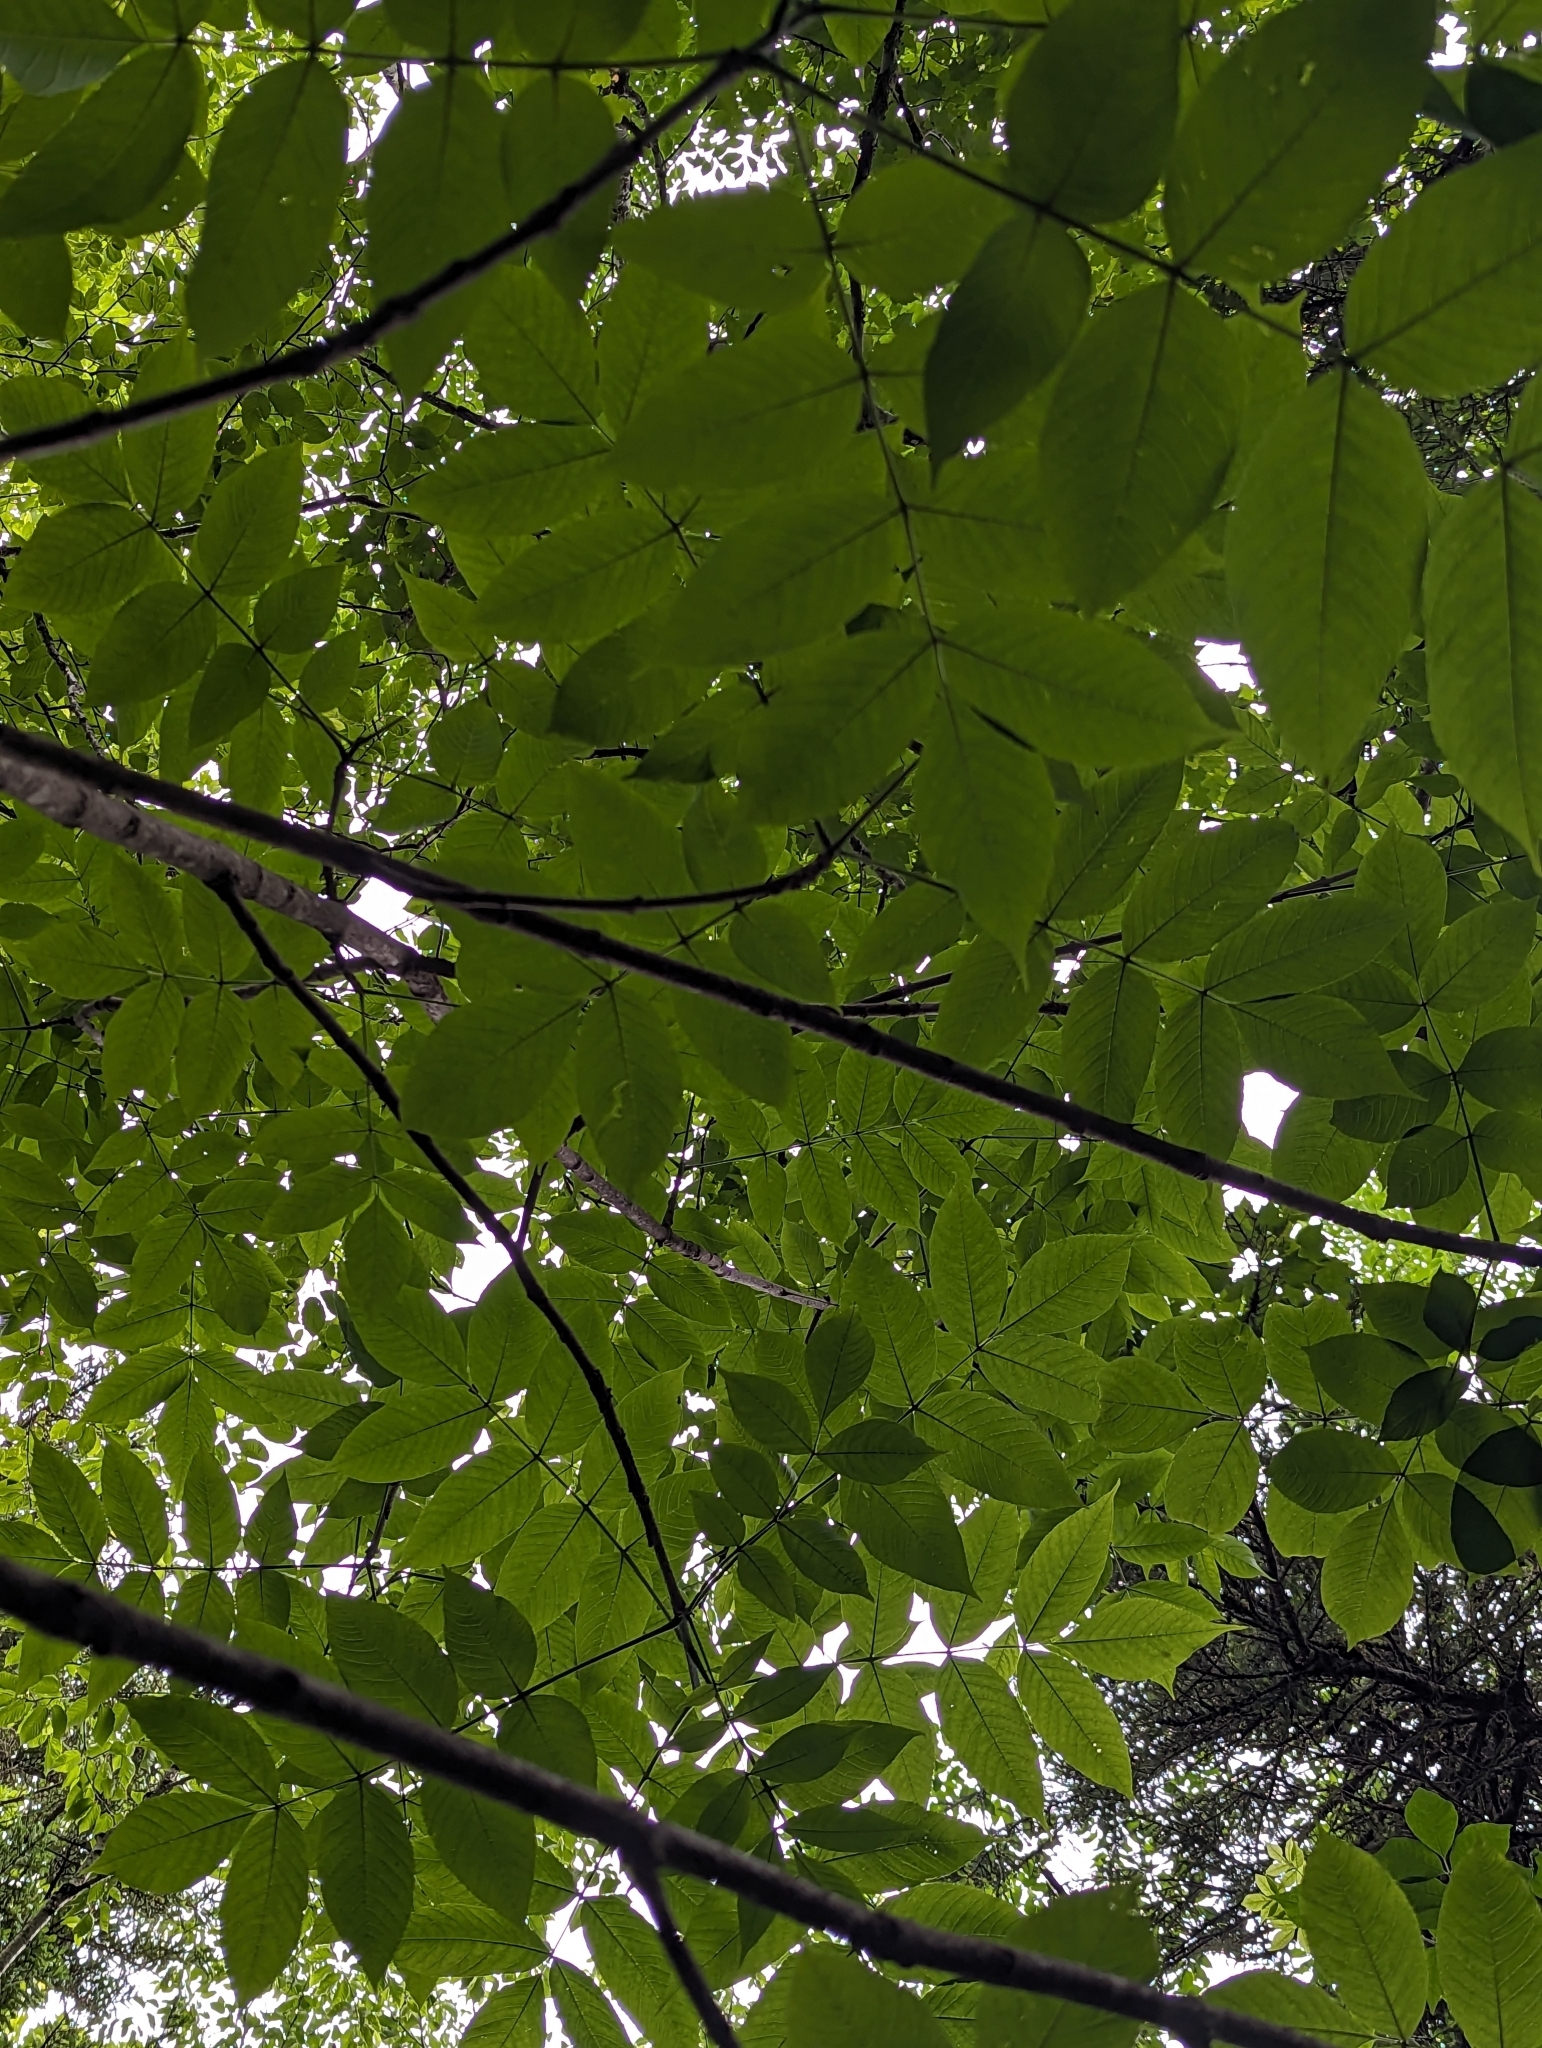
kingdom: Plantae
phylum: Tracheophyta
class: Magnoliopsida
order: Lamiales
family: Oleaceae
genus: Fraxinus
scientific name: Fraxinus nigra
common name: Black ash
